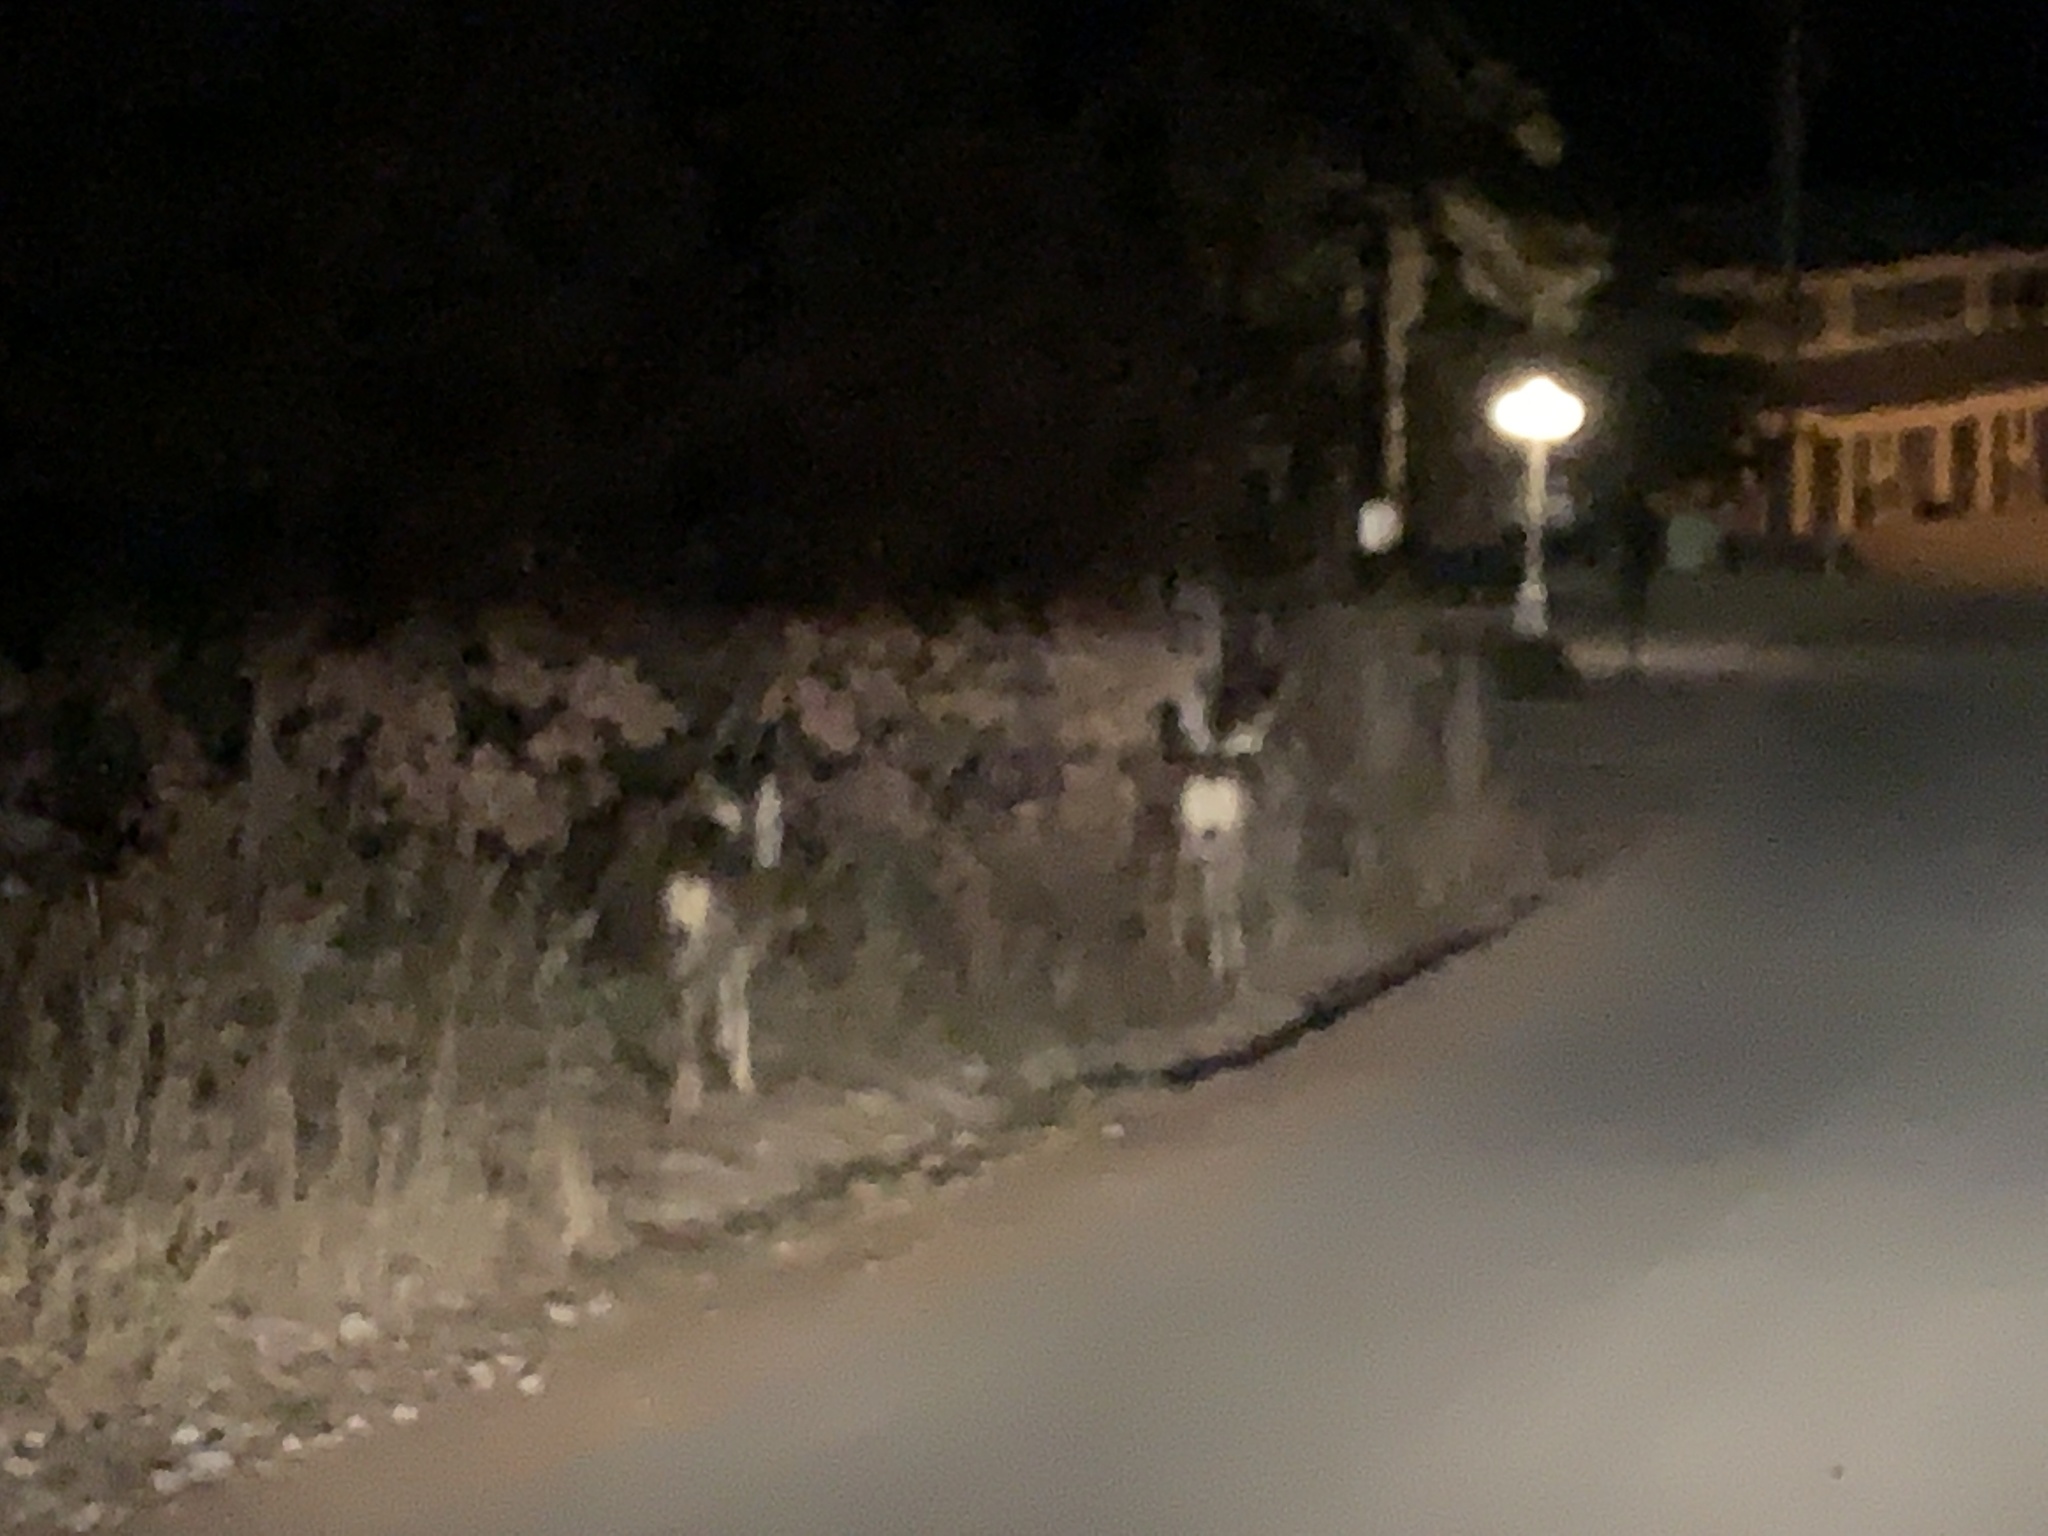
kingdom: Animalia
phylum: Chordata
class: Mammalia
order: Artiodactyla
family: Cervidae
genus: Odocoileus
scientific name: Odocoileus hemionus
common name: Mule deer
